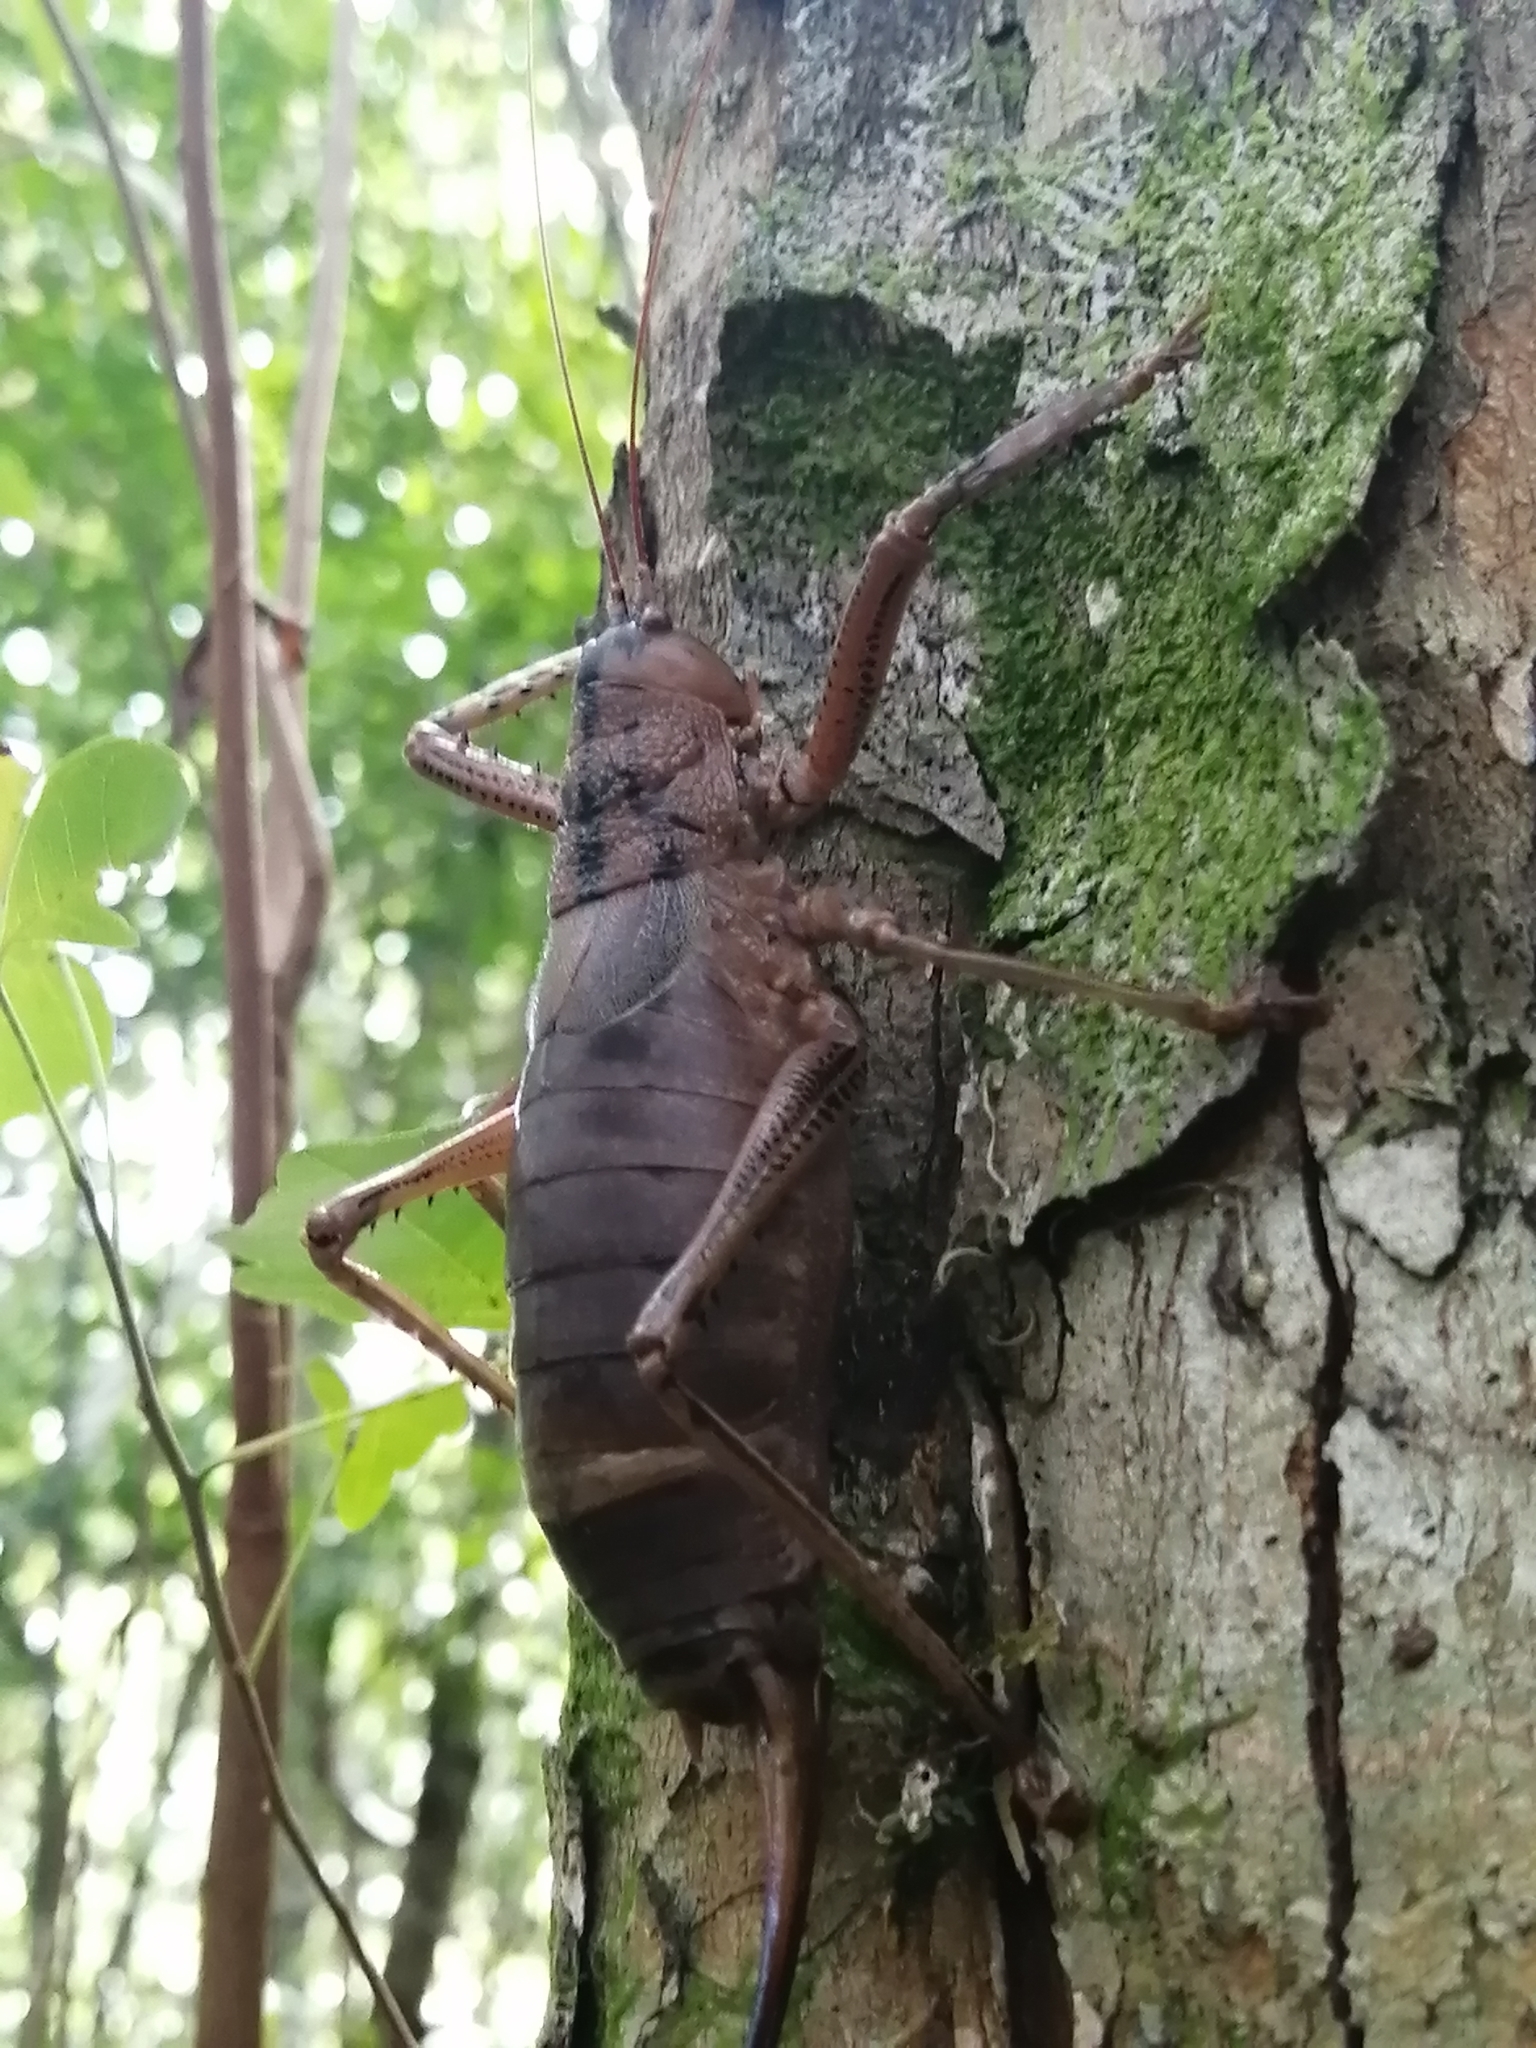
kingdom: Animalia
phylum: Arthropoda
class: Insecta
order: Orthoptera
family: Tettigoniidae
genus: Nesoecia
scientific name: Nesoecia insignis
